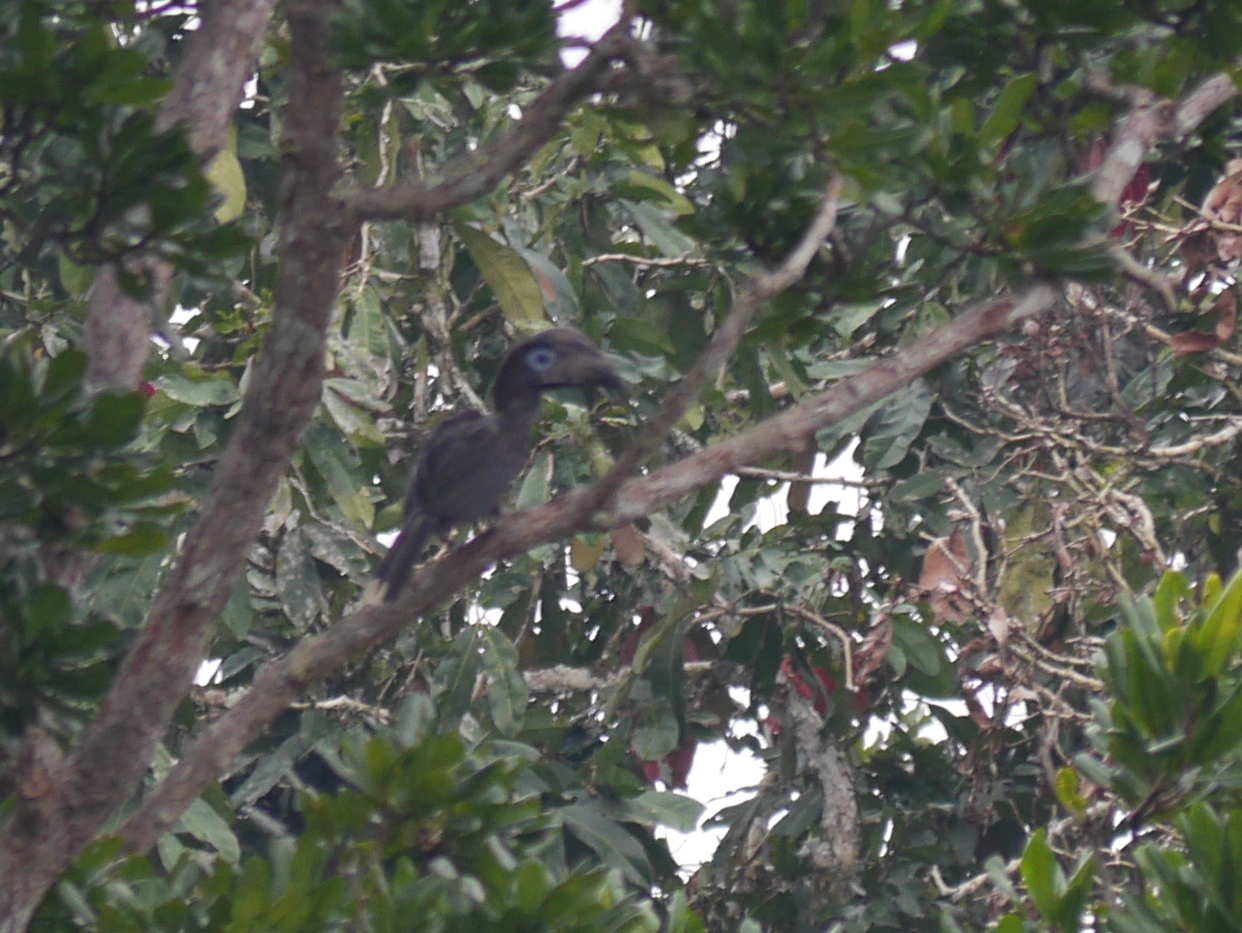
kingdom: Animalia
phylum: Chordata
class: Aves
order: Bucerotiformes
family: Bucerotidae
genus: Ceratogymna
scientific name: Ceratogymna atrata
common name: Black-casqued hornbill
